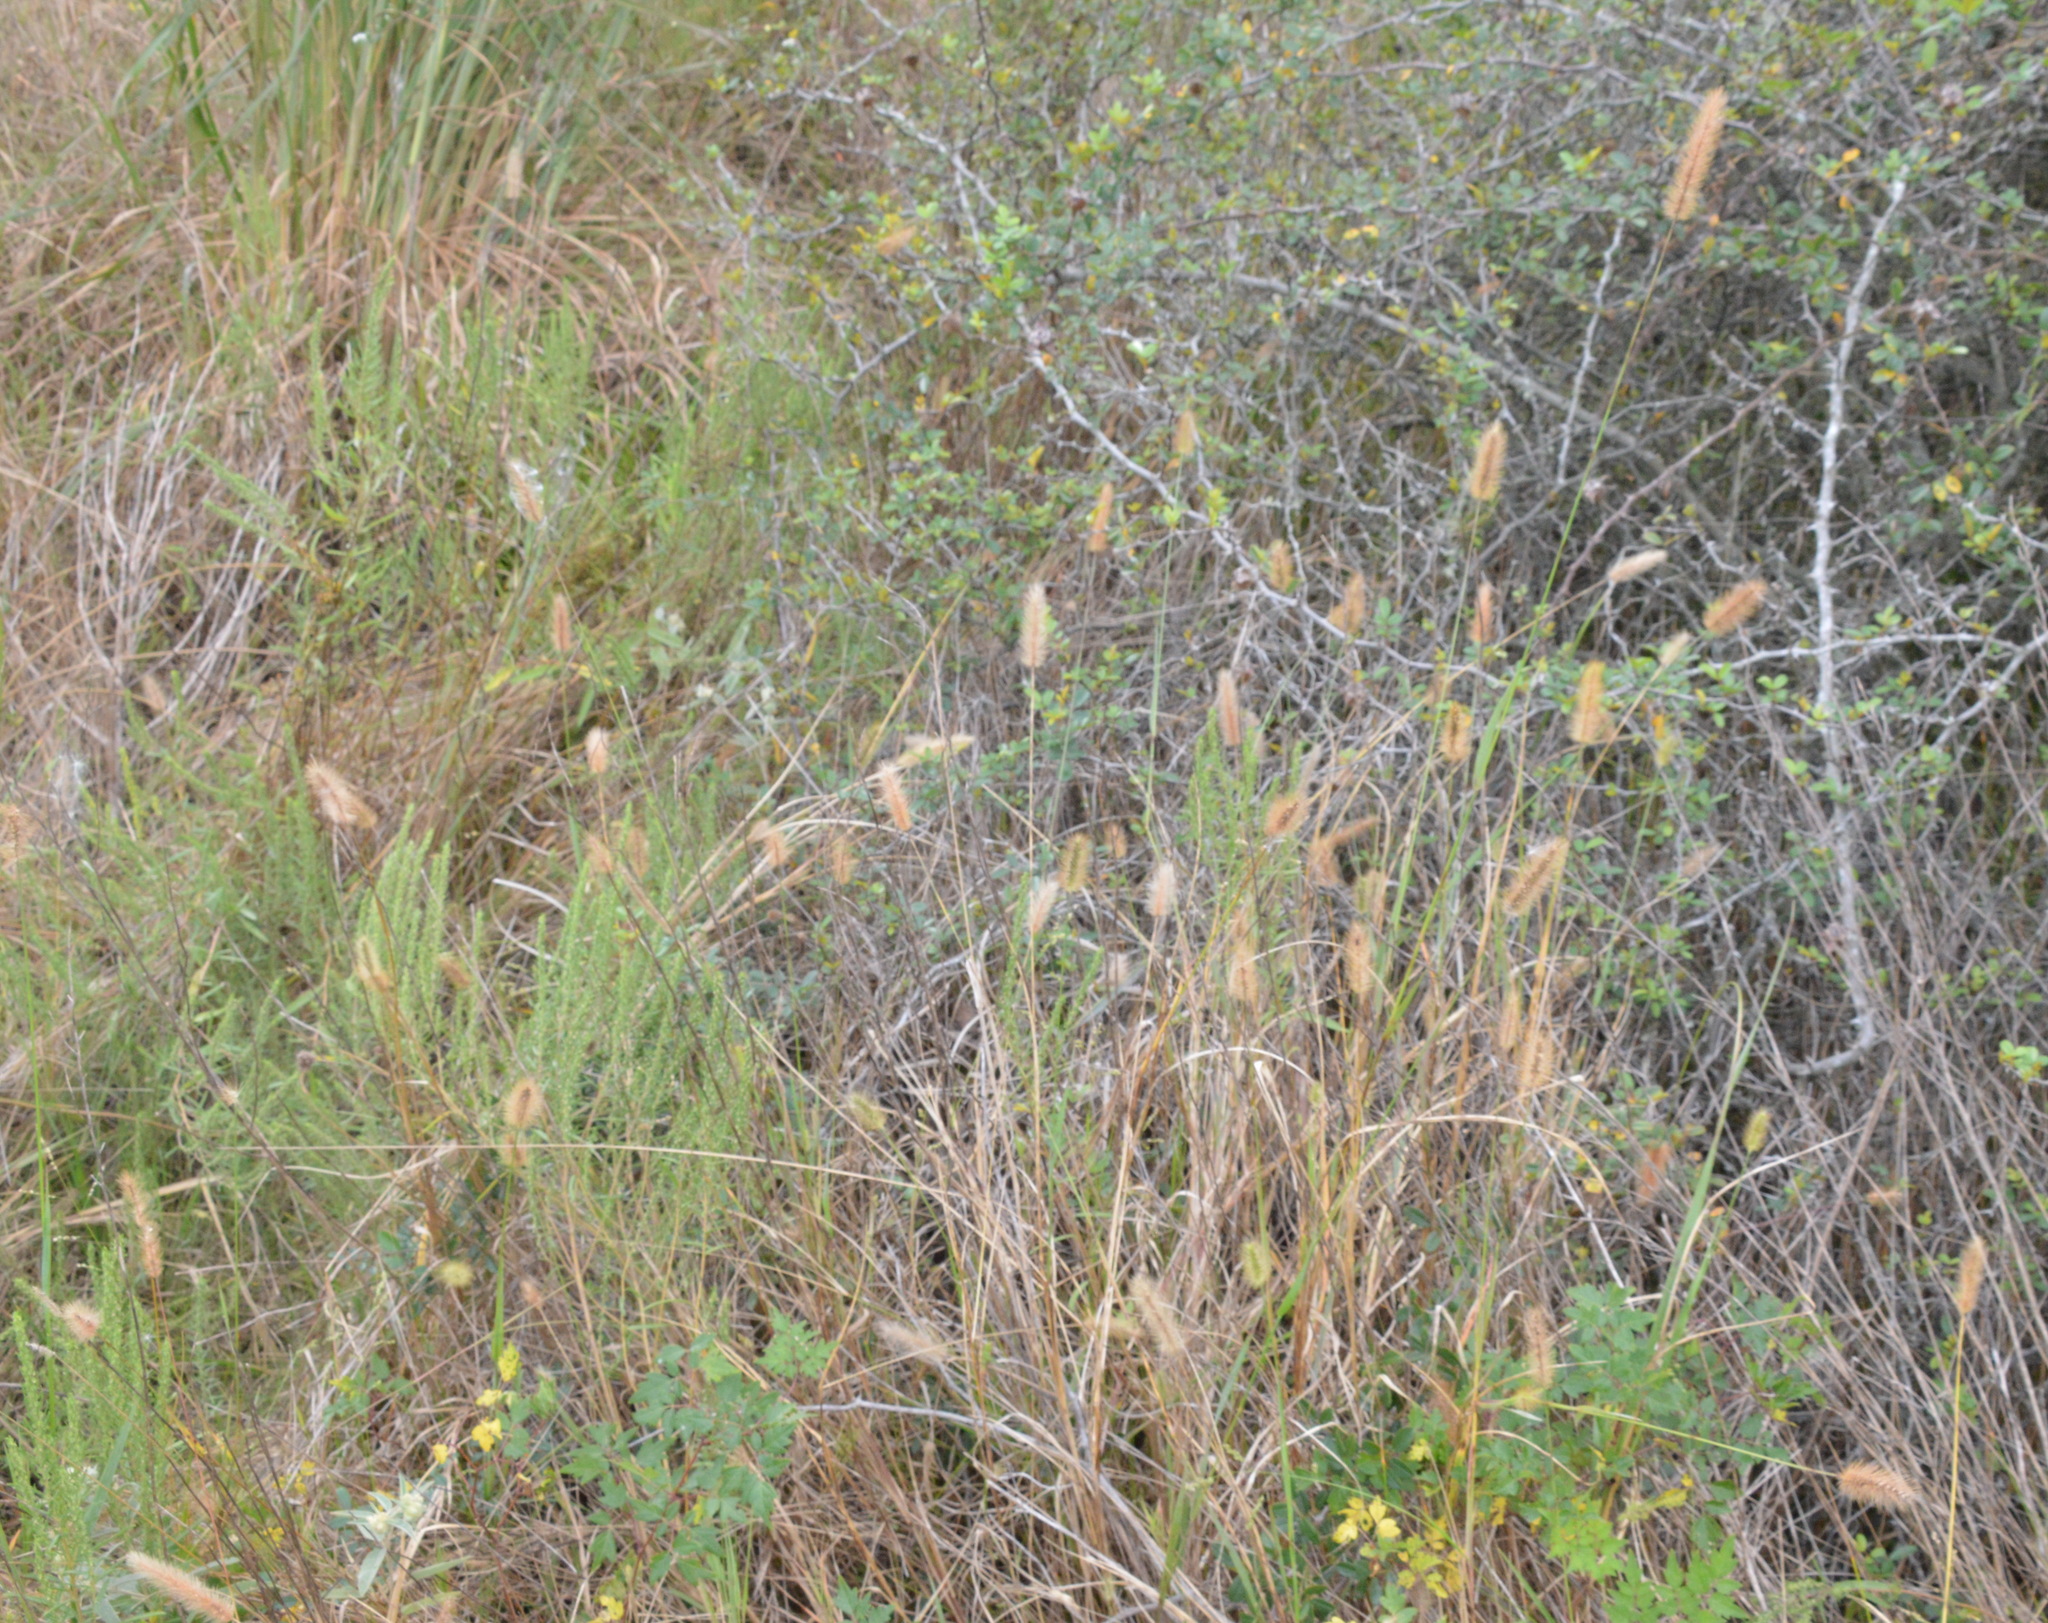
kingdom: Plantae
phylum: Tracheophyta
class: Liliopsida
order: Poales
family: Poaceae
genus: Setaria
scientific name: Setaria parviflora
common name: Knotroot bristle-grass
